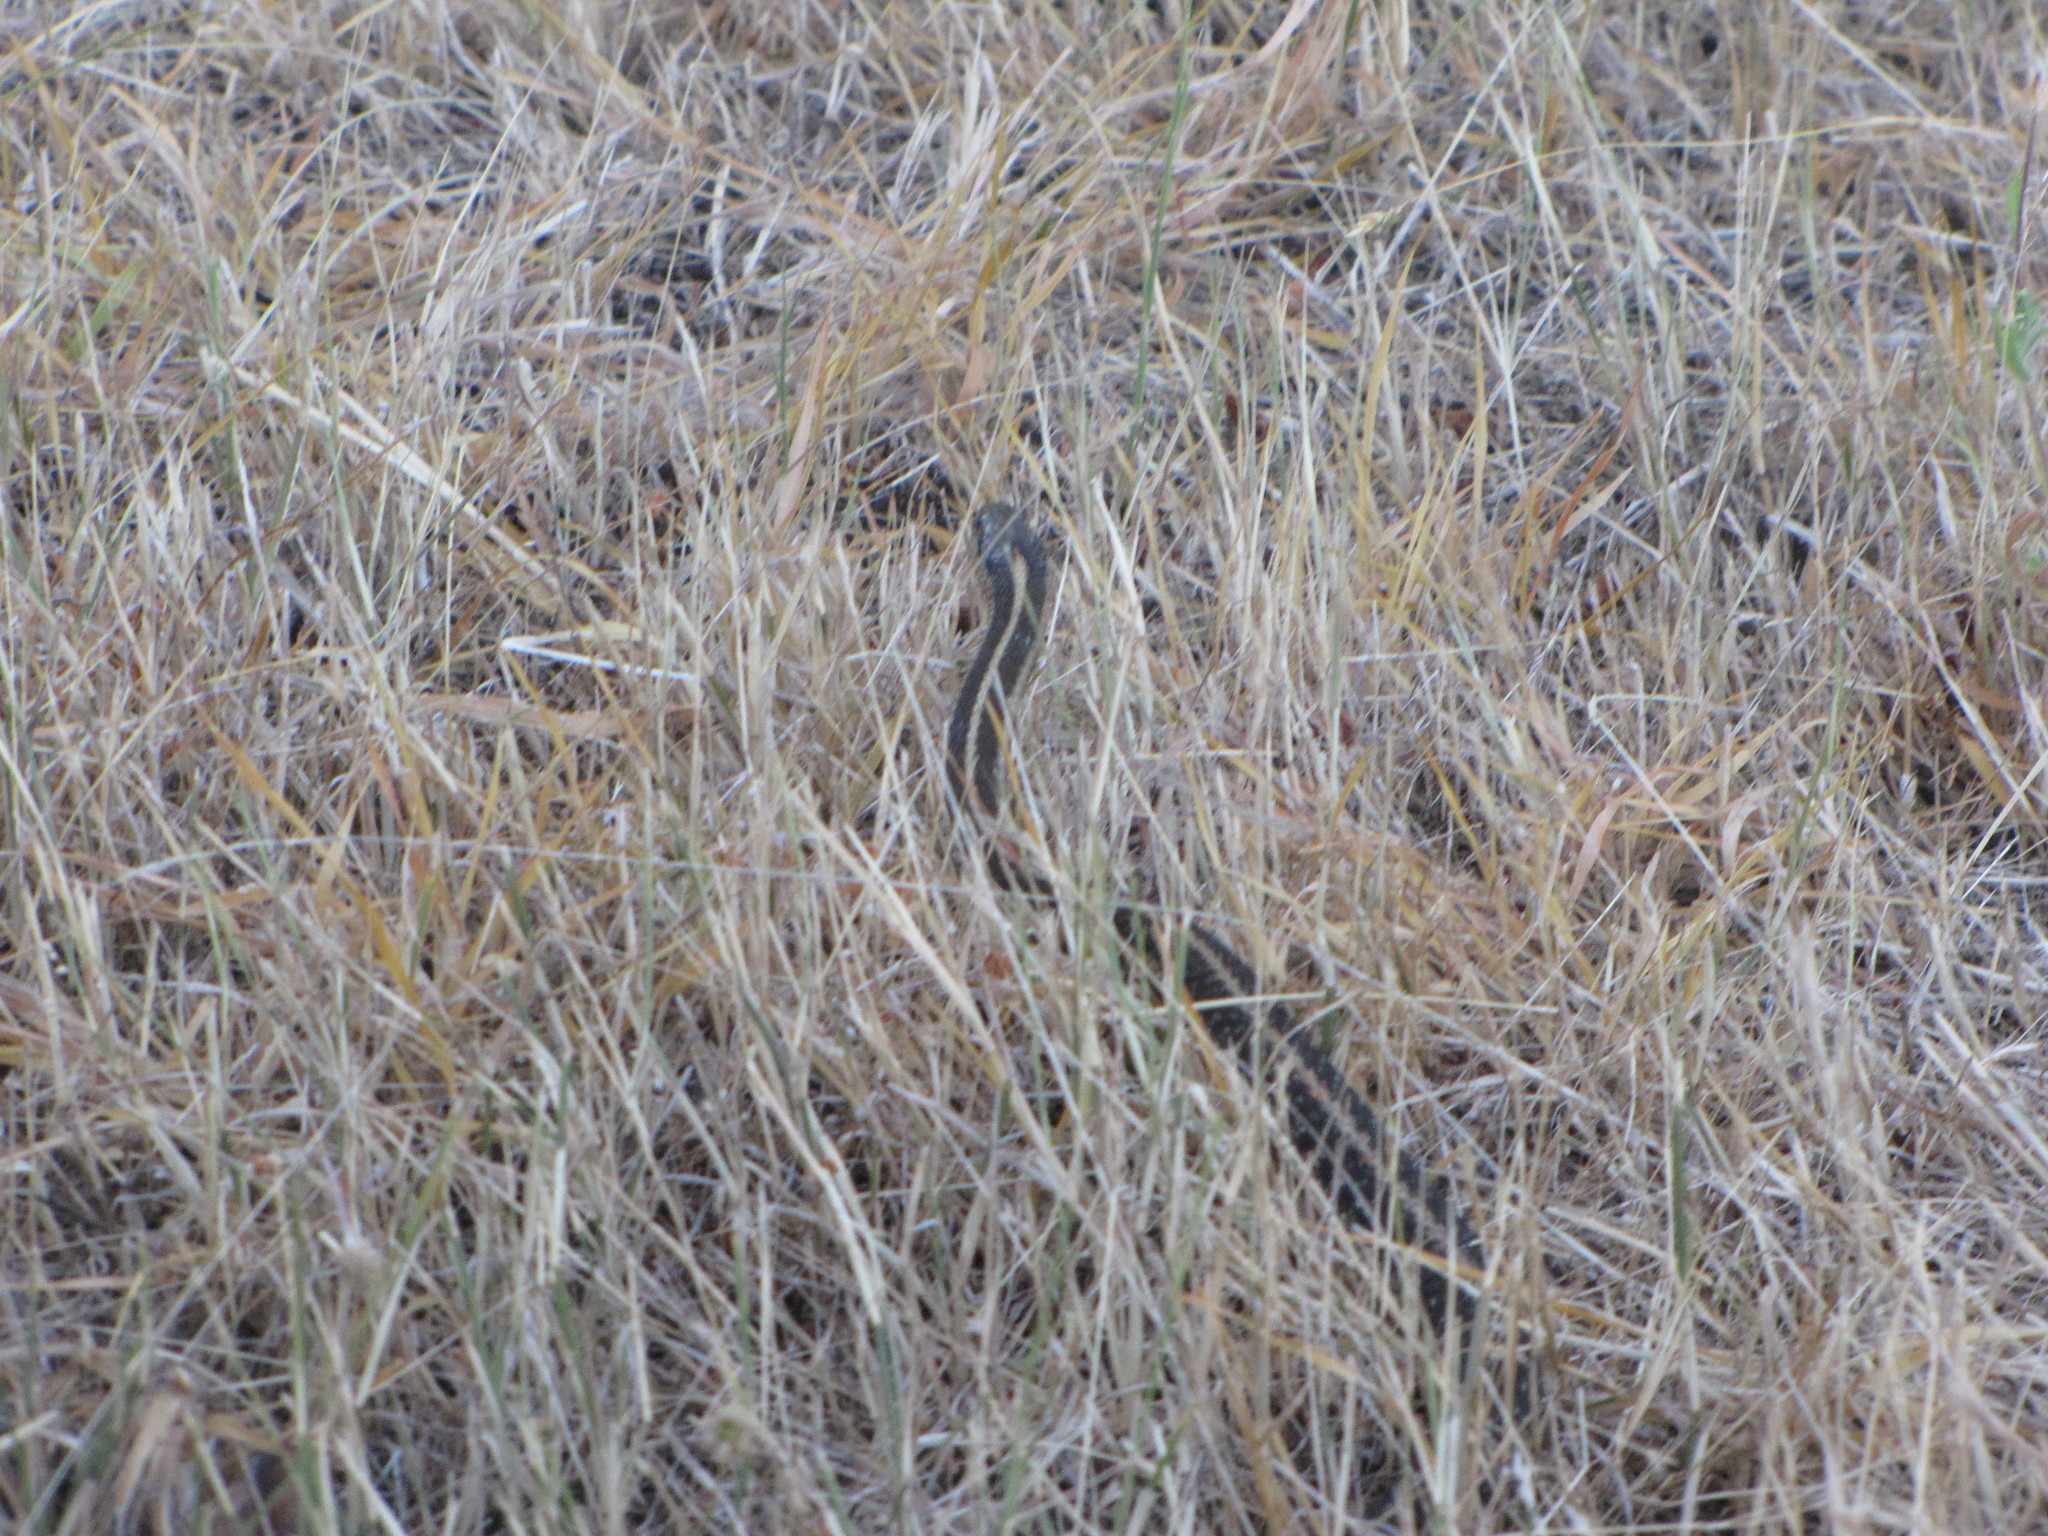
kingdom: Animalia
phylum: Chordata
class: Squamata
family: Colubridae
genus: Thamnophis
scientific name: Thamnophis sirtalis
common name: Common garter snake
